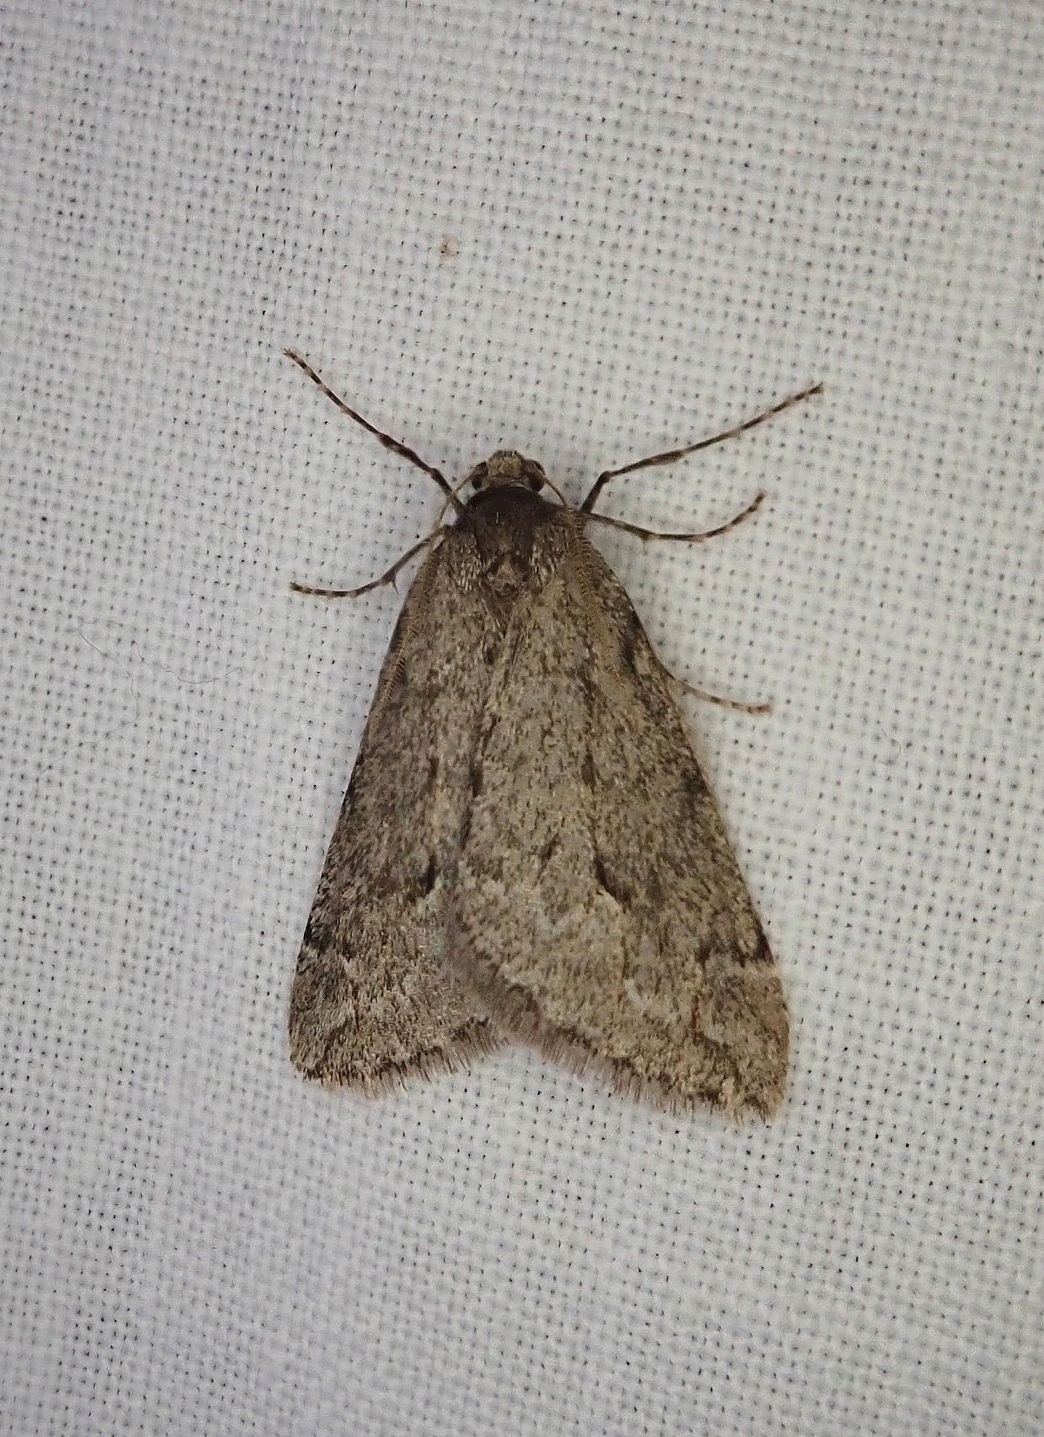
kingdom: Animalia
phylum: Arthropoda
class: Insecta
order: Lepidoptera
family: Geometridae
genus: Paleacrita
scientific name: Paleacrita vernata
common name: Spring cankerworm
